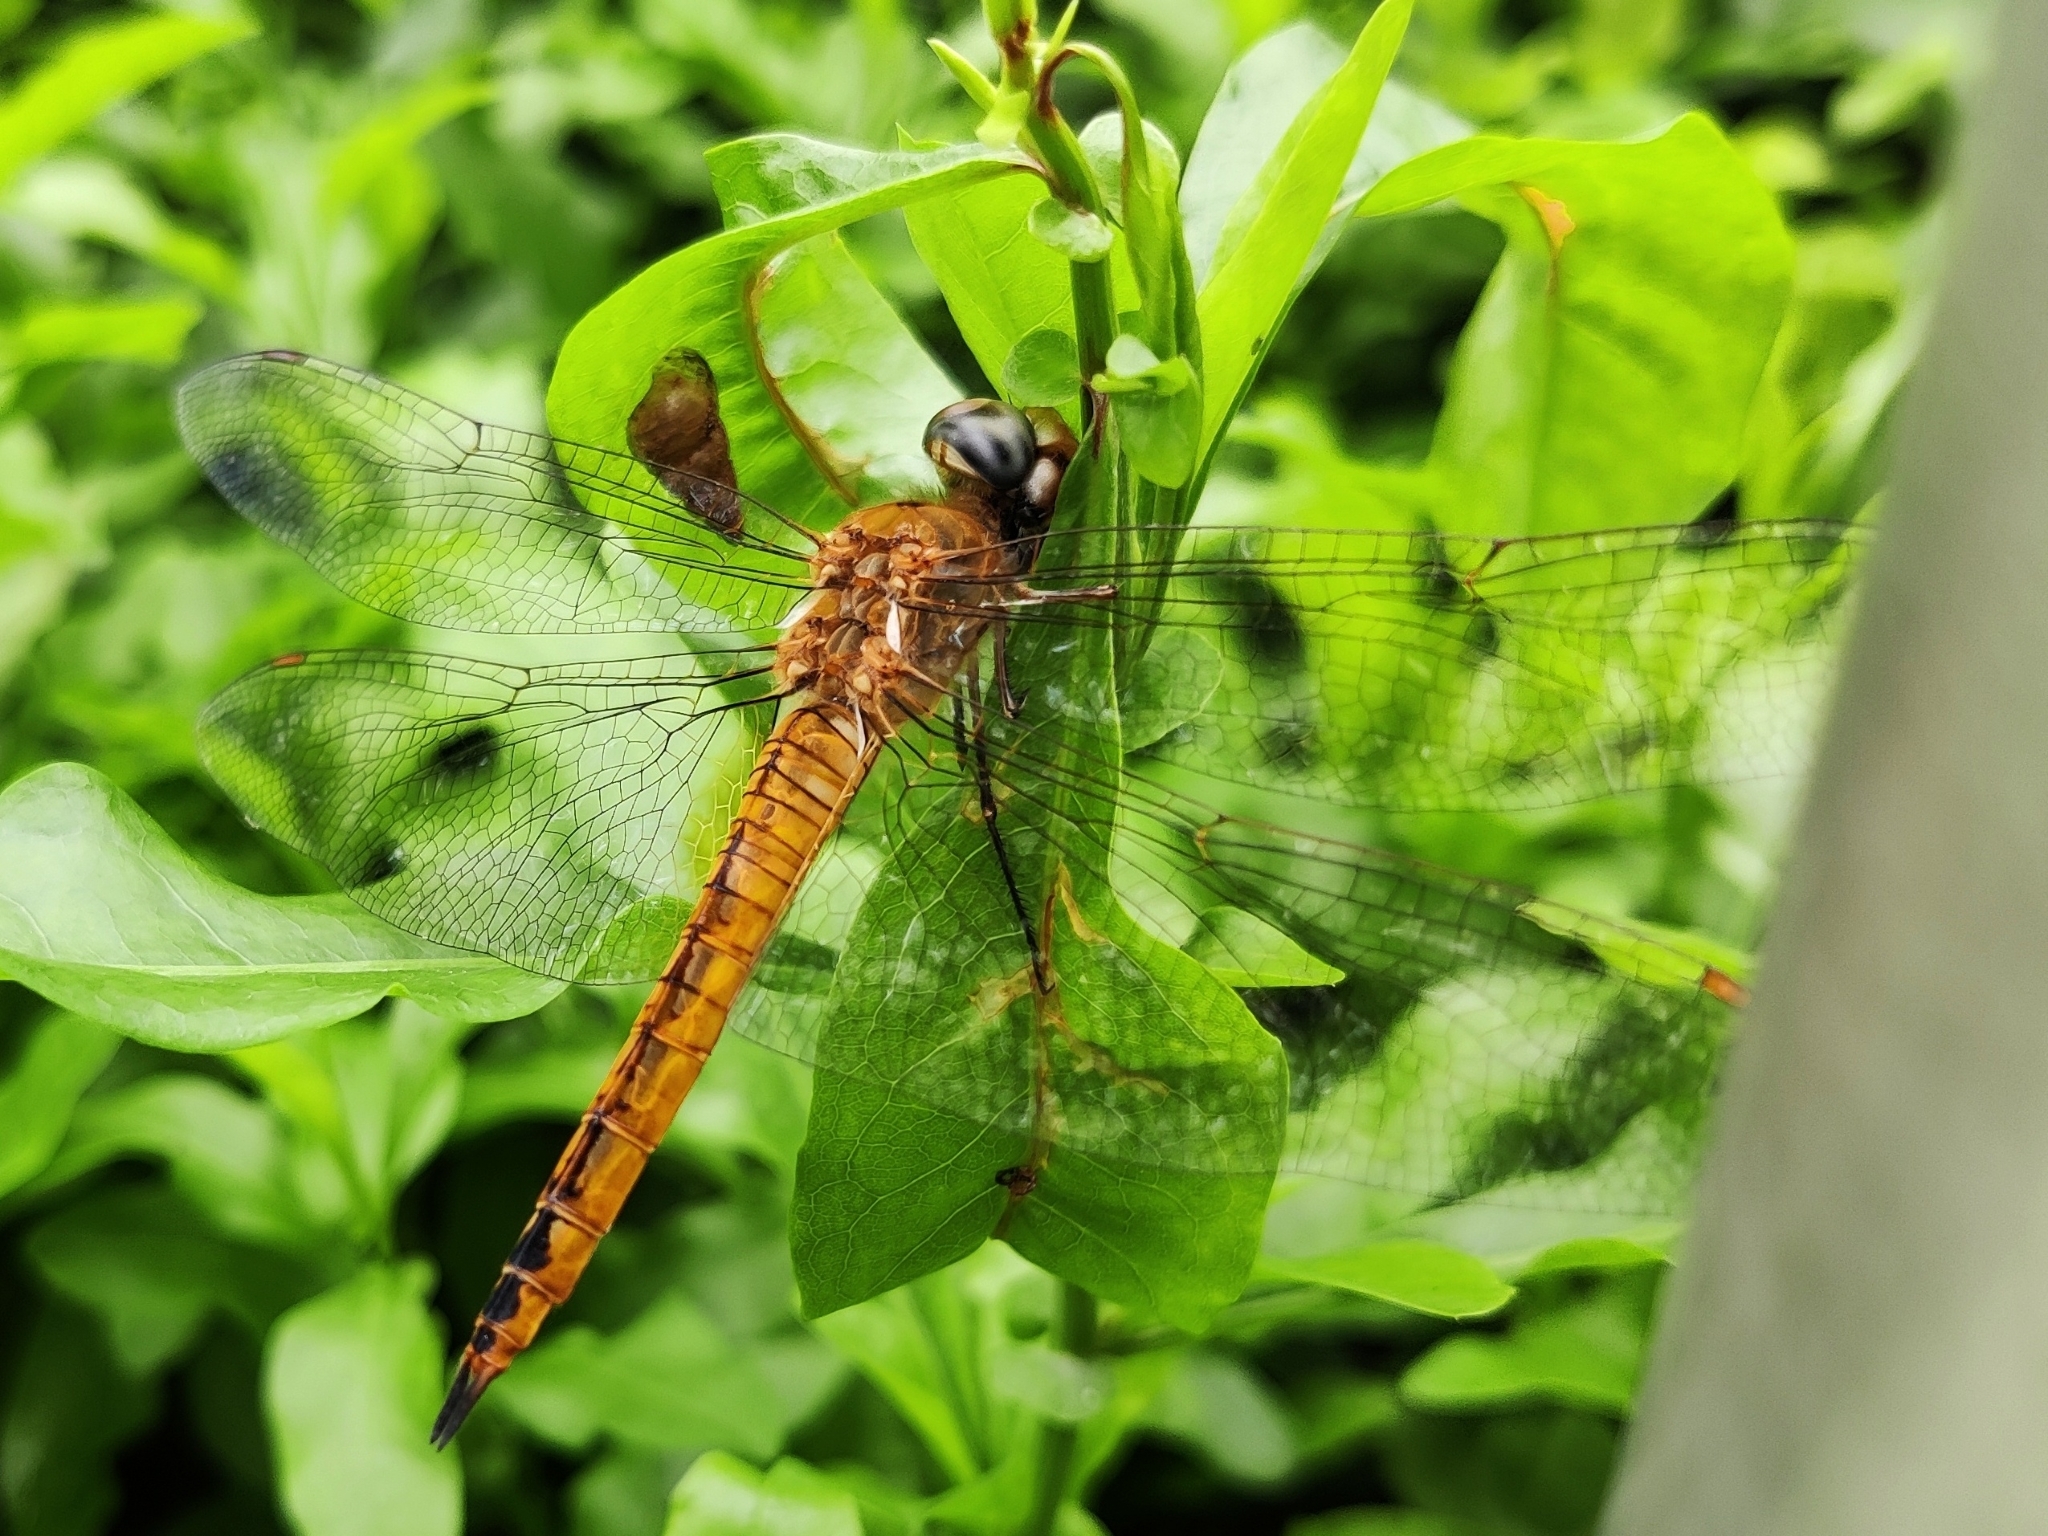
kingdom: Animalia
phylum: Arthropoda
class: Insecta
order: Odonata
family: Libellulidae
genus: Pantala
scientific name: Pantala flavescens
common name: Wandering glider
